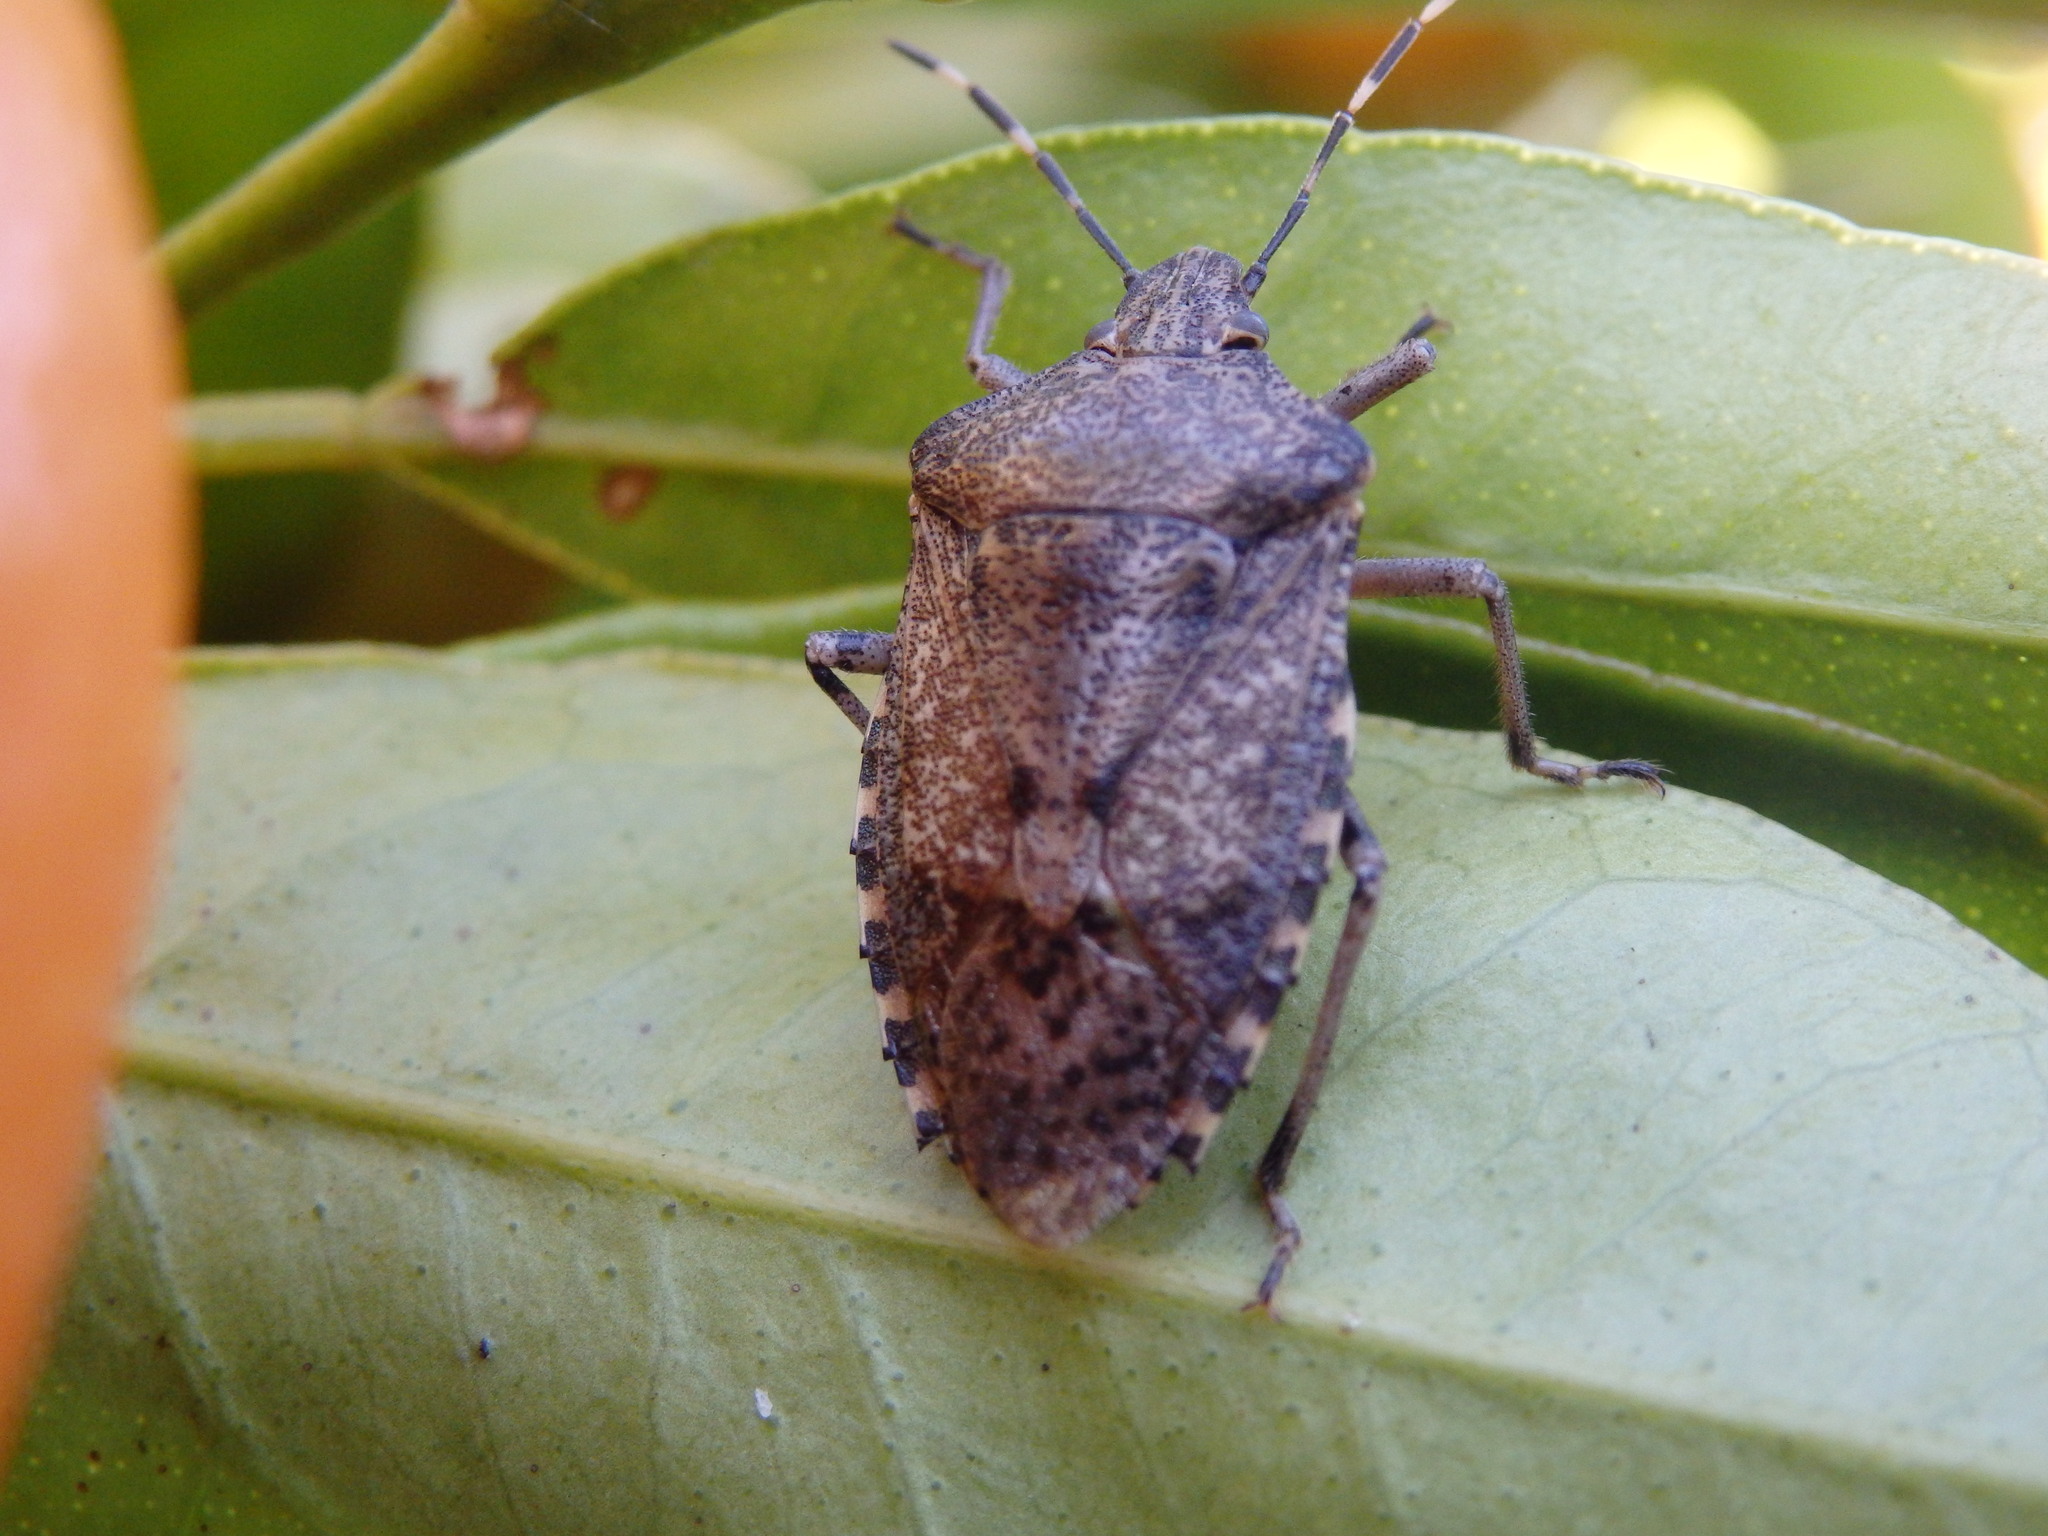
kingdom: Animalia
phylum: Arthropoda
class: Insecta
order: Hemiptera
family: Pentatomidae
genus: Rhaphigaster
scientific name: Rhaphigaster nebulosa
